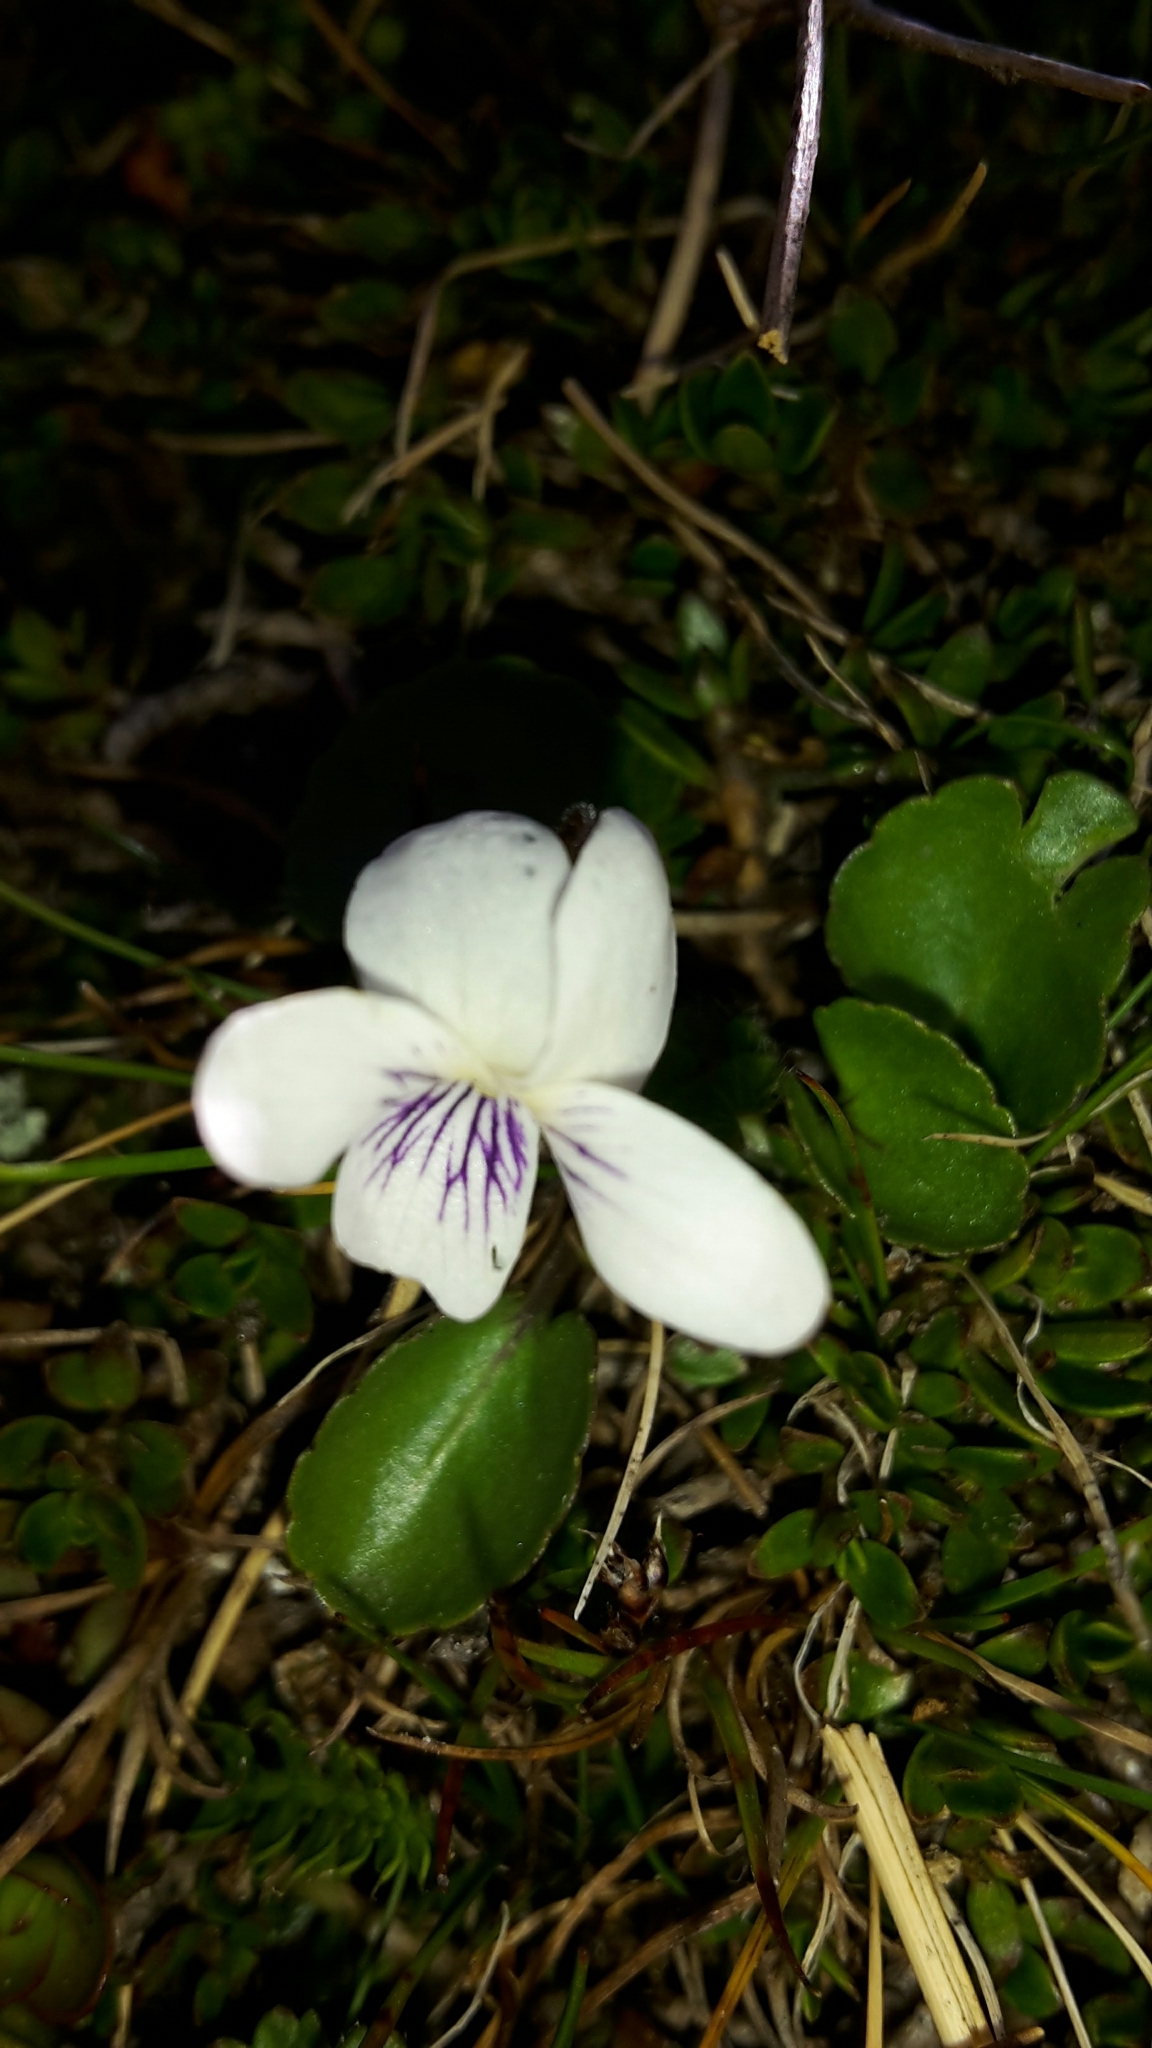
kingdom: Plantae
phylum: Tracheophyta
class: Magnoliopsida
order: Malpighiales
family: Violaceae
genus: Viola
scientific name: Viola cunninghamii
